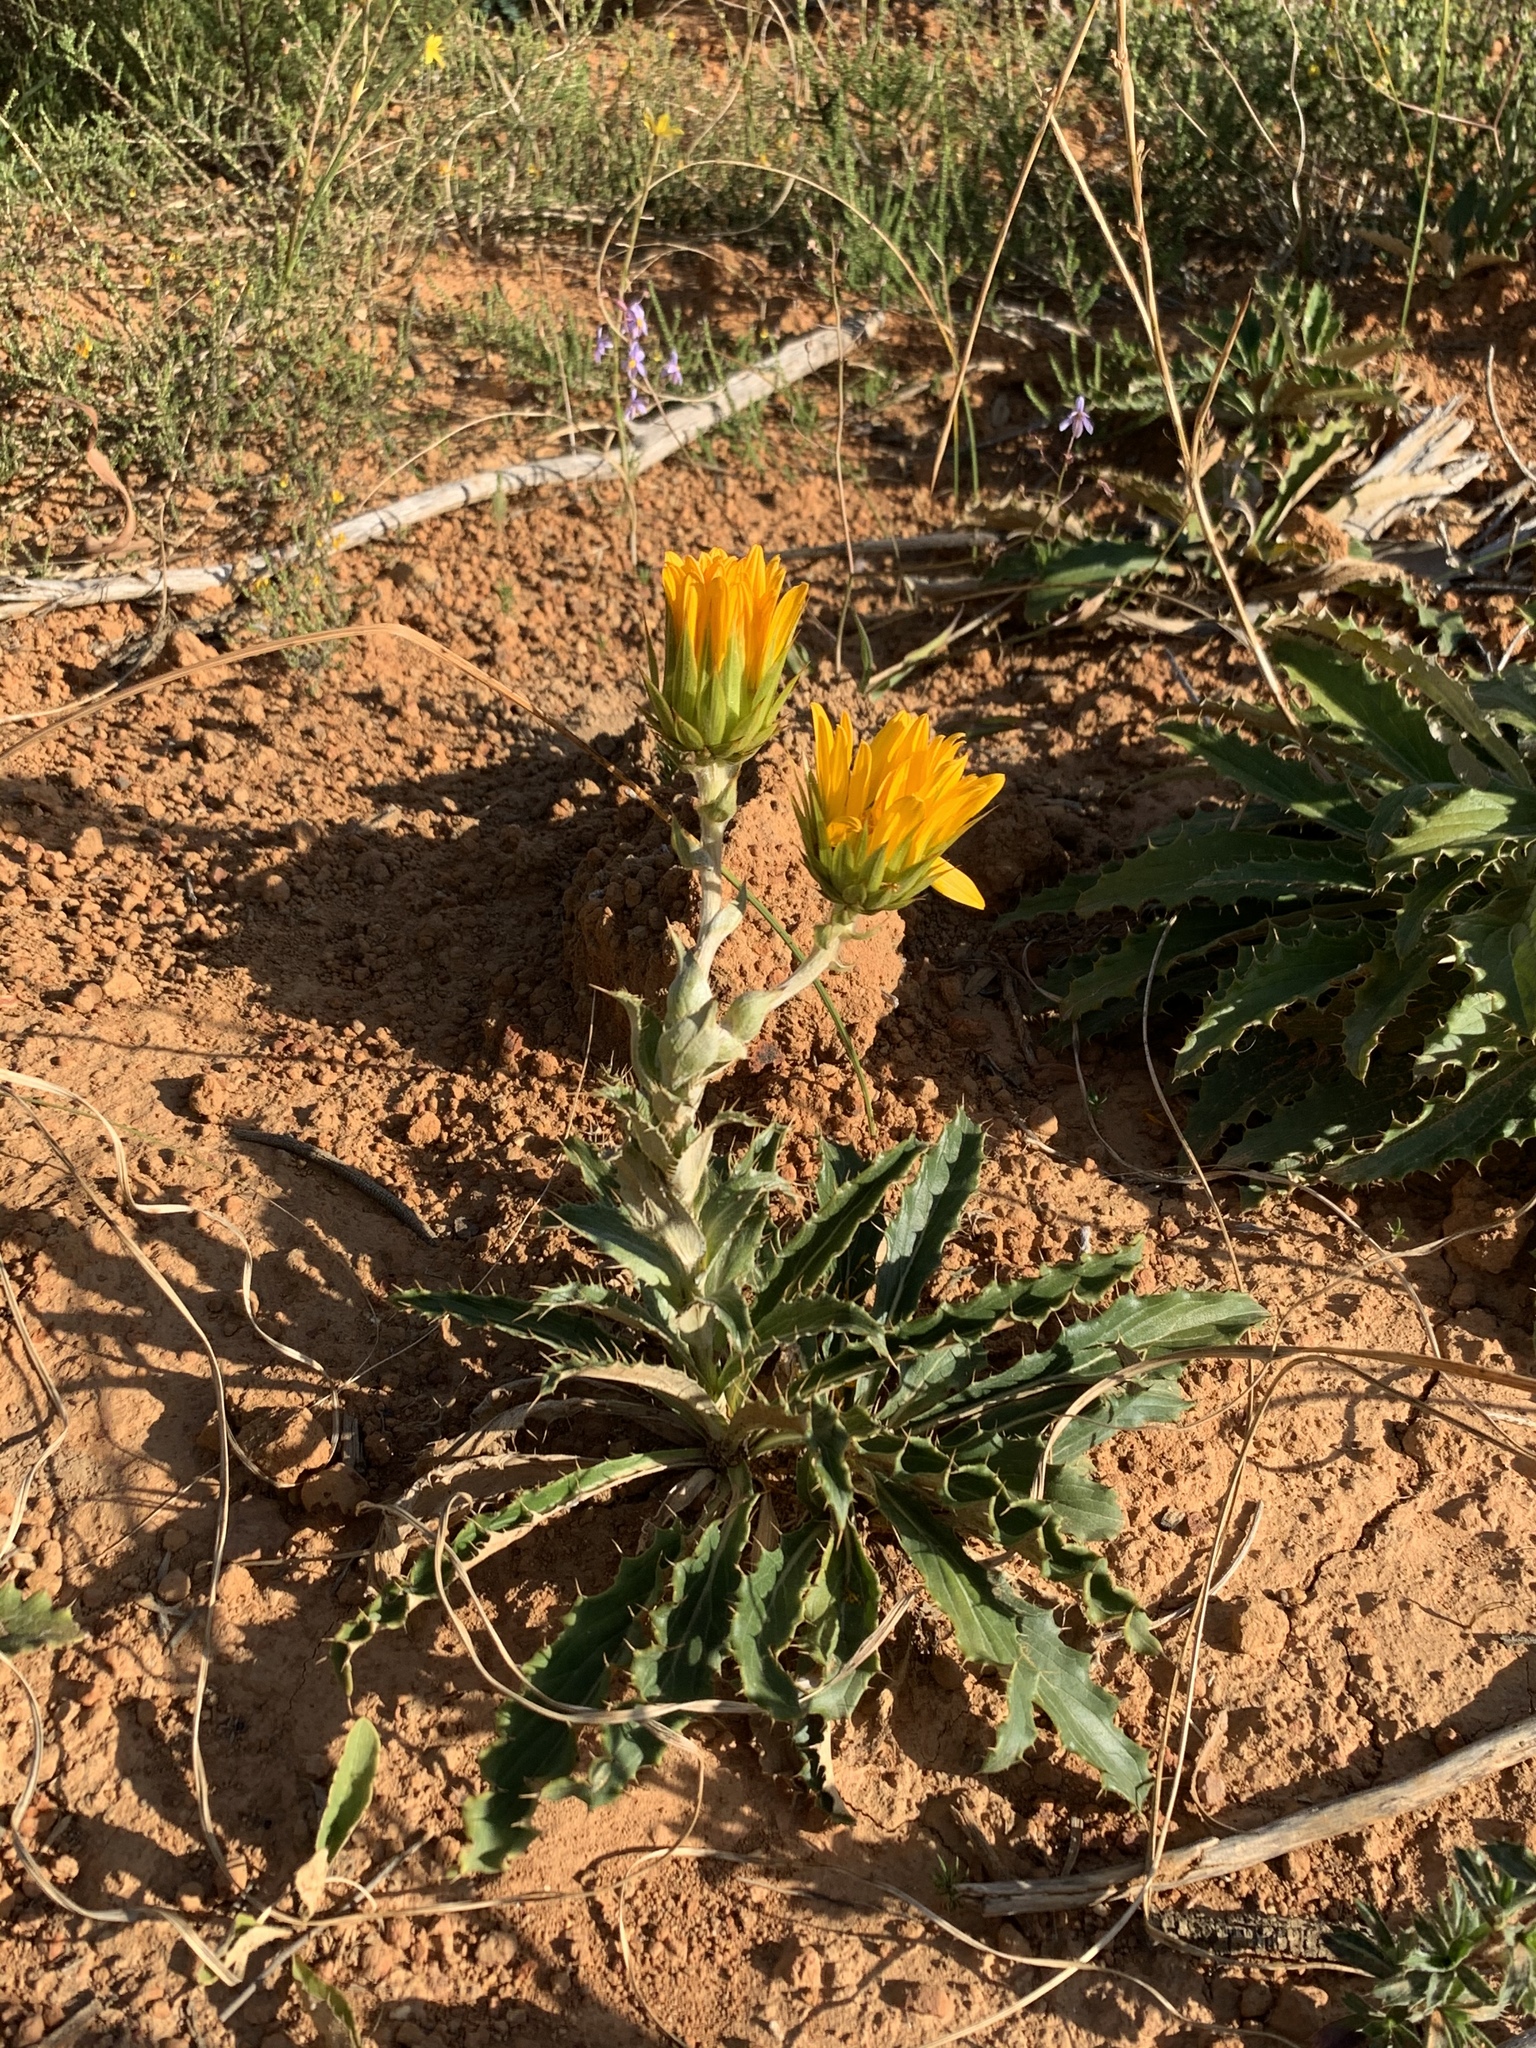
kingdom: Plantae
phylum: Tracheophyta
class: Magnoliopsida
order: Asterales
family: Asteraceae
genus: Berkheya
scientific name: Berkheya armata
